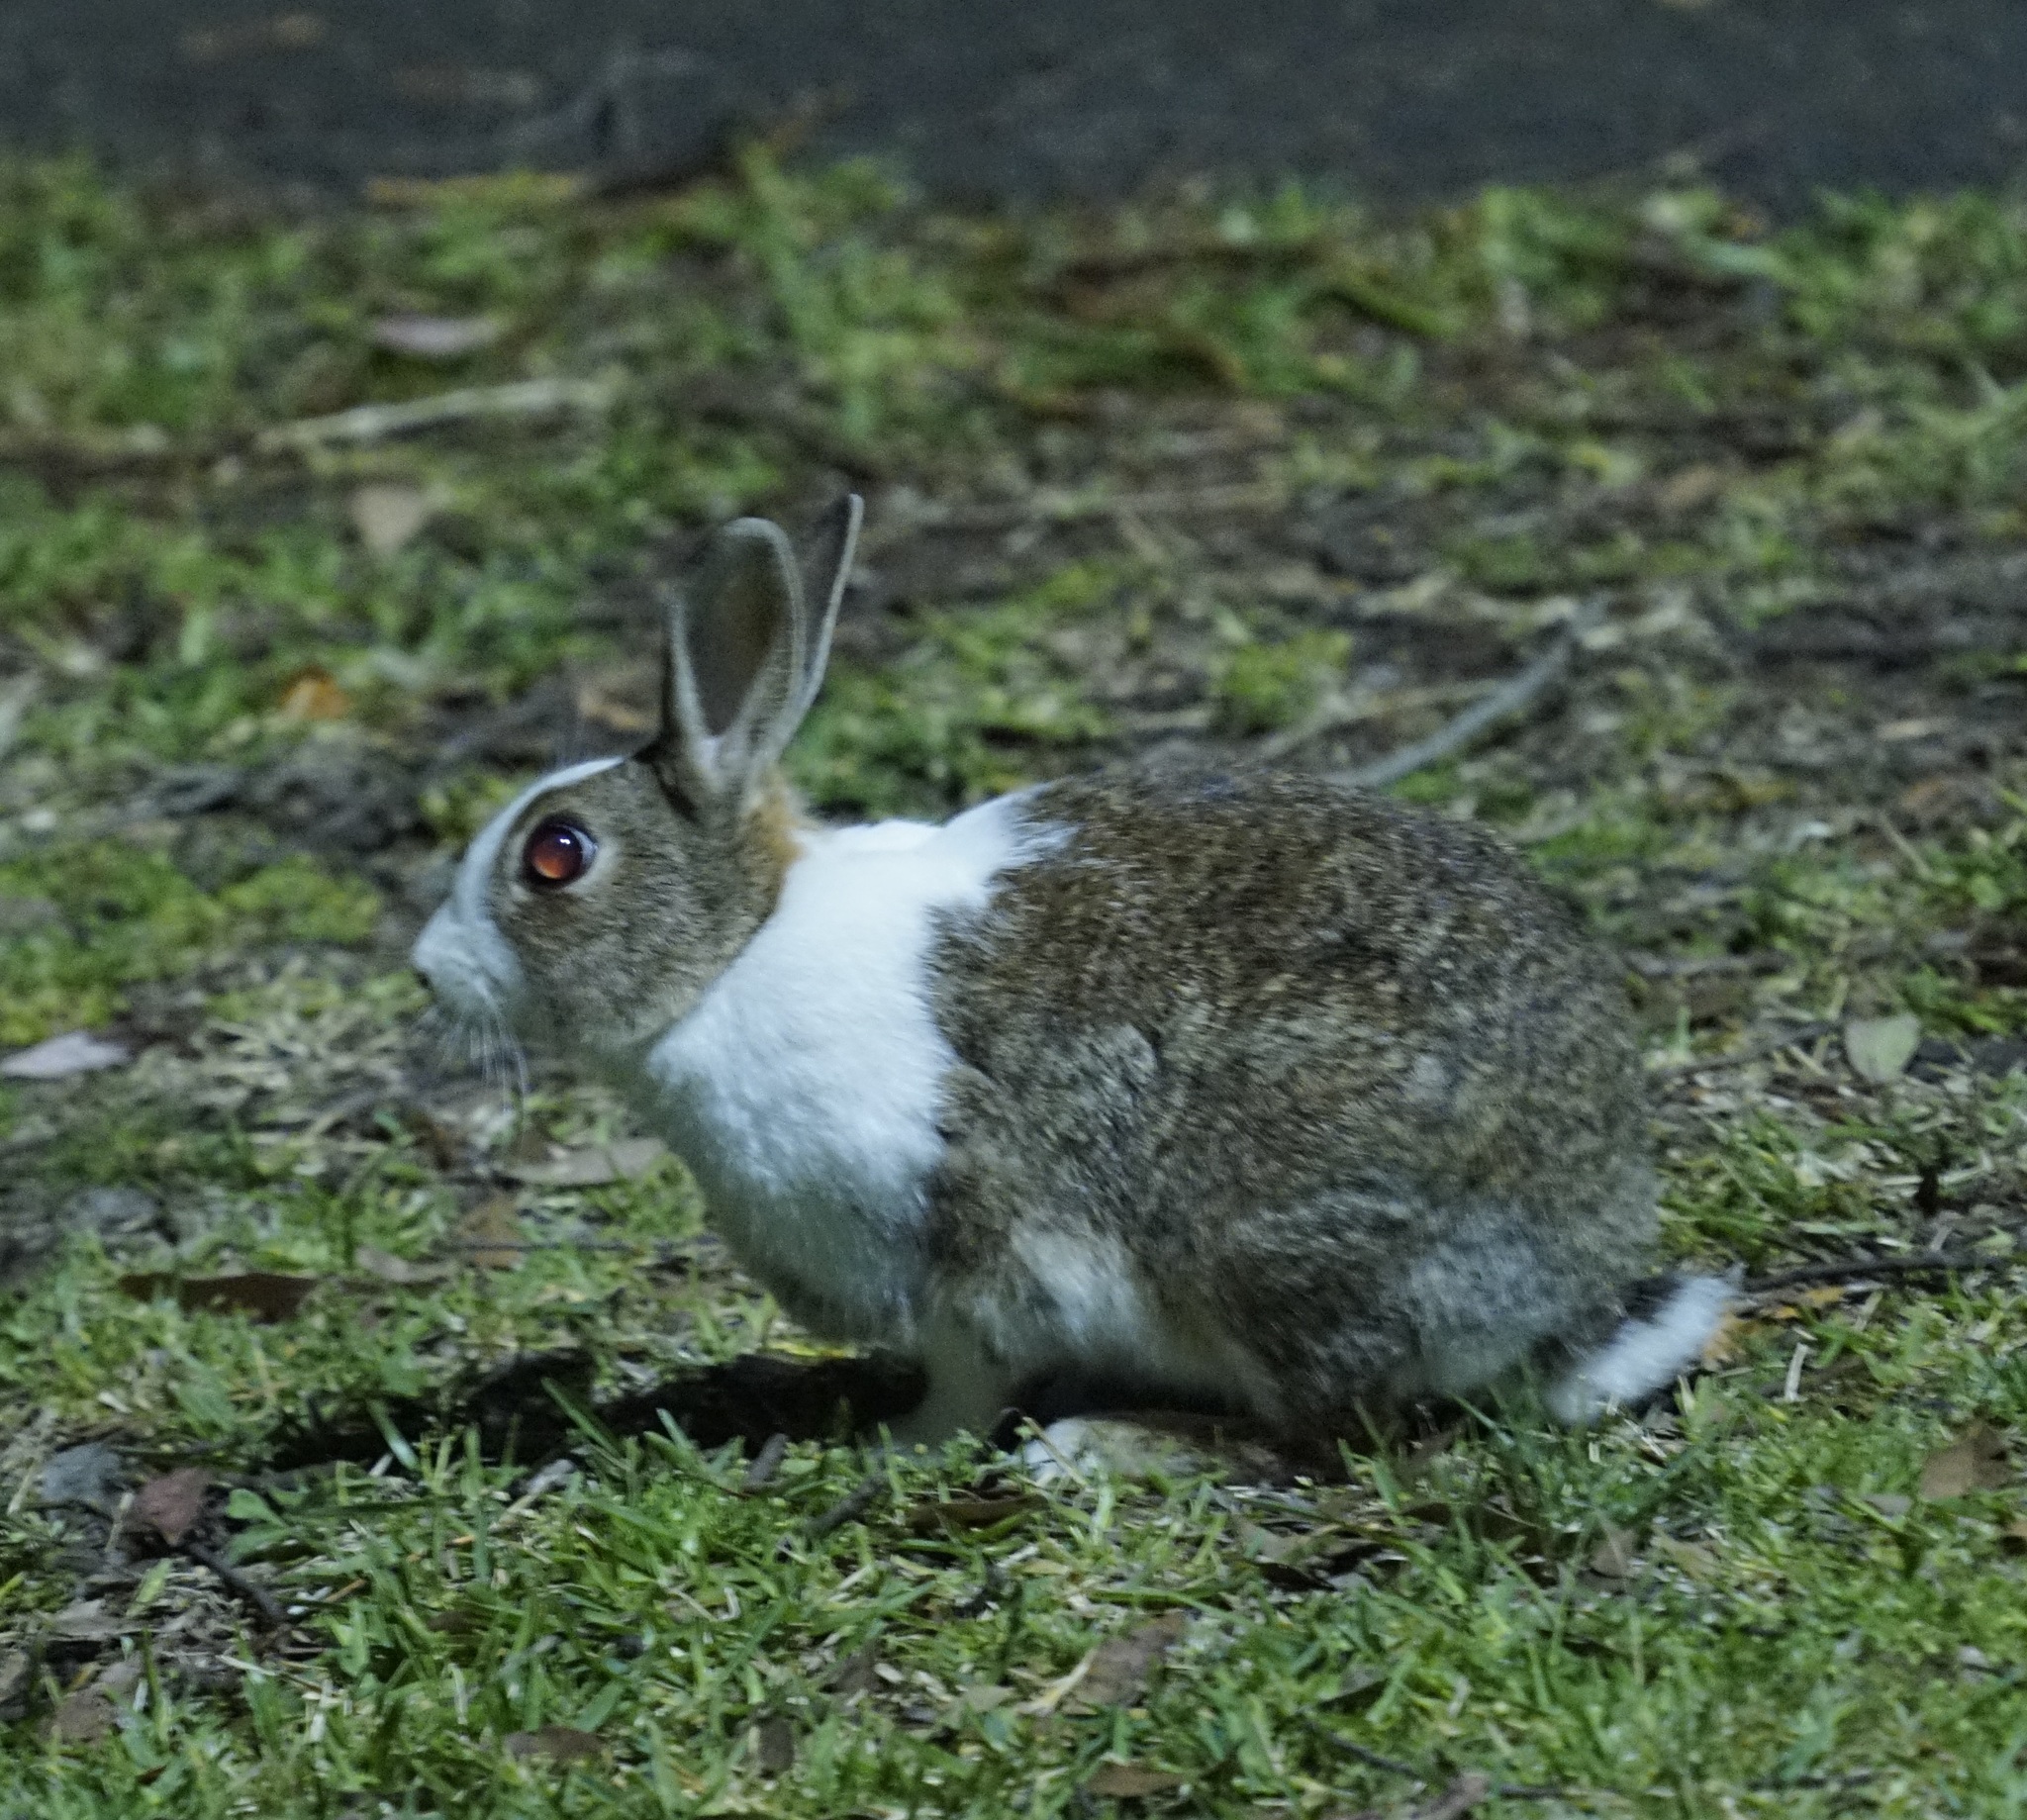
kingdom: Animalia
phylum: Chordata
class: Mammalia
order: Lagomorpha
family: Leporidae
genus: Oryctolagus
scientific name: Oryctolagus cuniculus
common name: European rabbit
